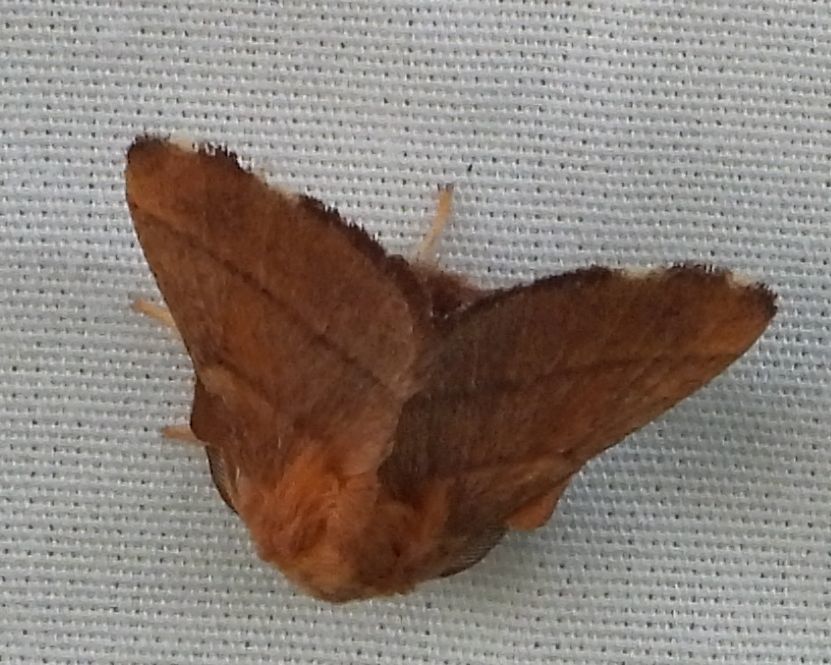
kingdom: Animalia
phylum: Arthropoda
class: Insecta
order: Lepidoptera
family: Lasiocampidae
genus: Malacosoma
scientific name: Malacosoma disstria
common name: Forest tent caterpillar
